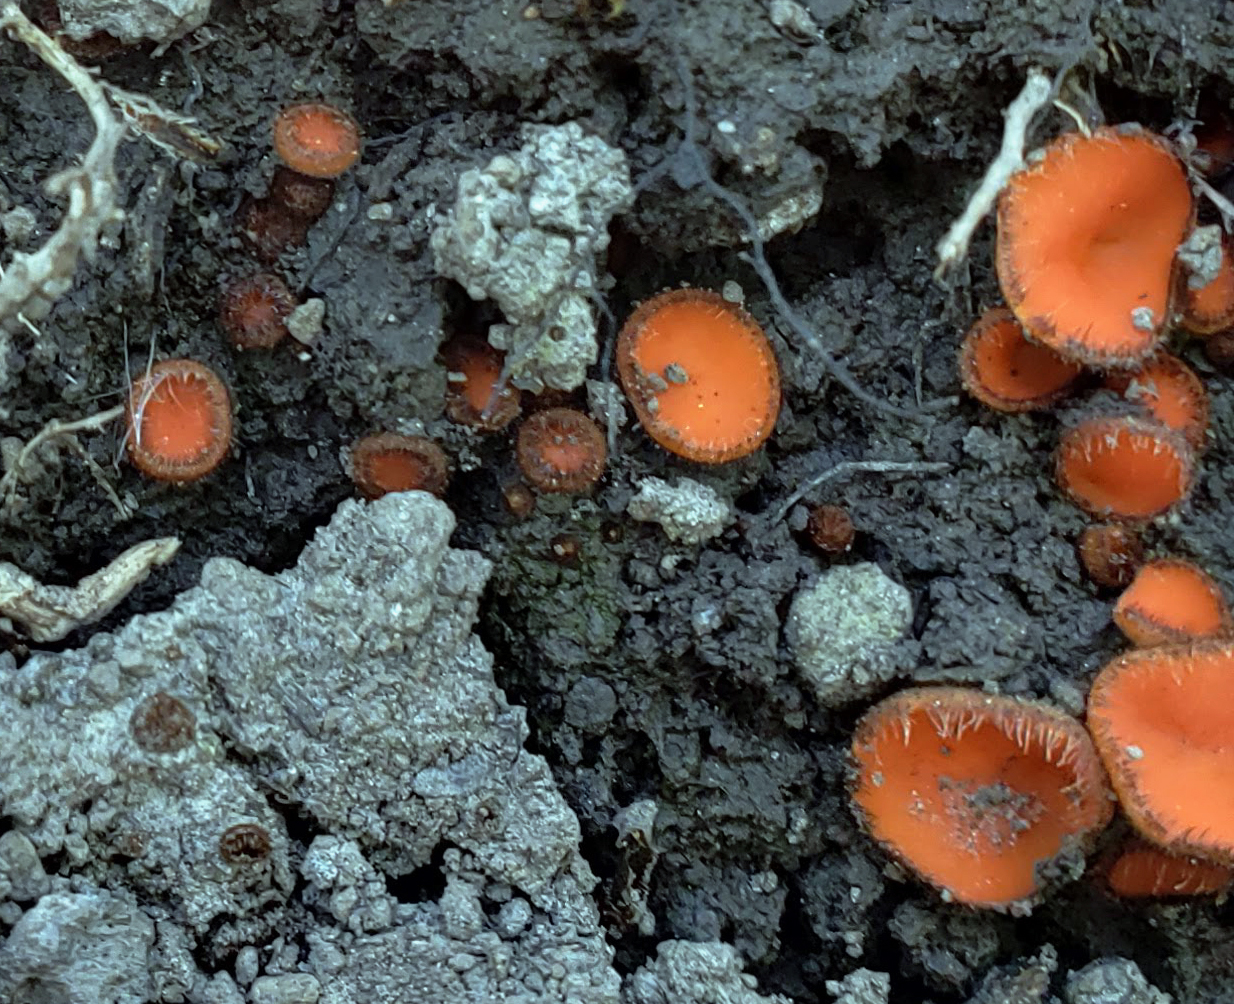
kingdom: Fungi
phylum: Ascomycota
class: Pezizomycetes
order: Pezizales
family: Pyronemataceae
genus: Scutellinia
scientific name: Scutellinia
